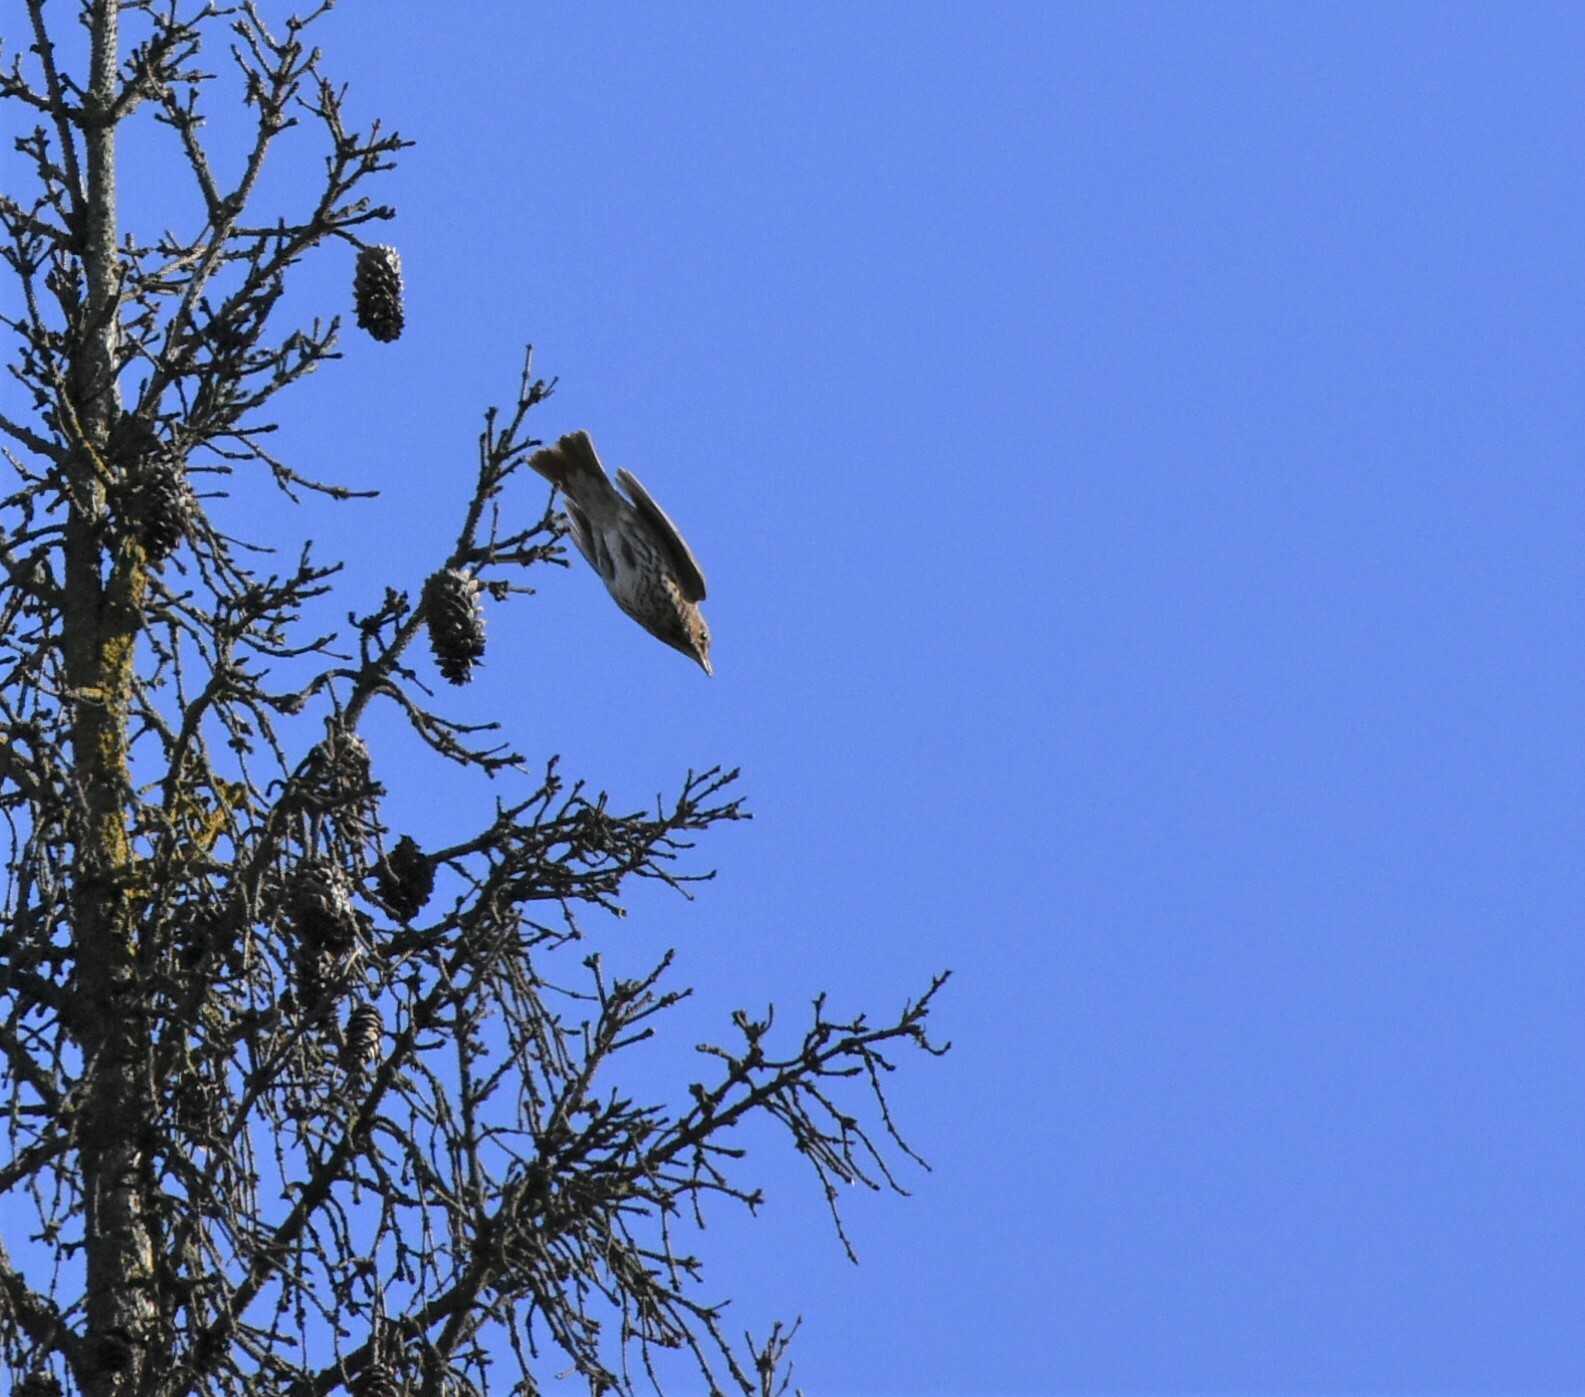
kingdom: Animalia
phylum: Chordata
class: Aves
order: Passeriformes
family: Turdidae
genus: Turdus
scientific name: Turdus pilaris
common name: Fieldfare
